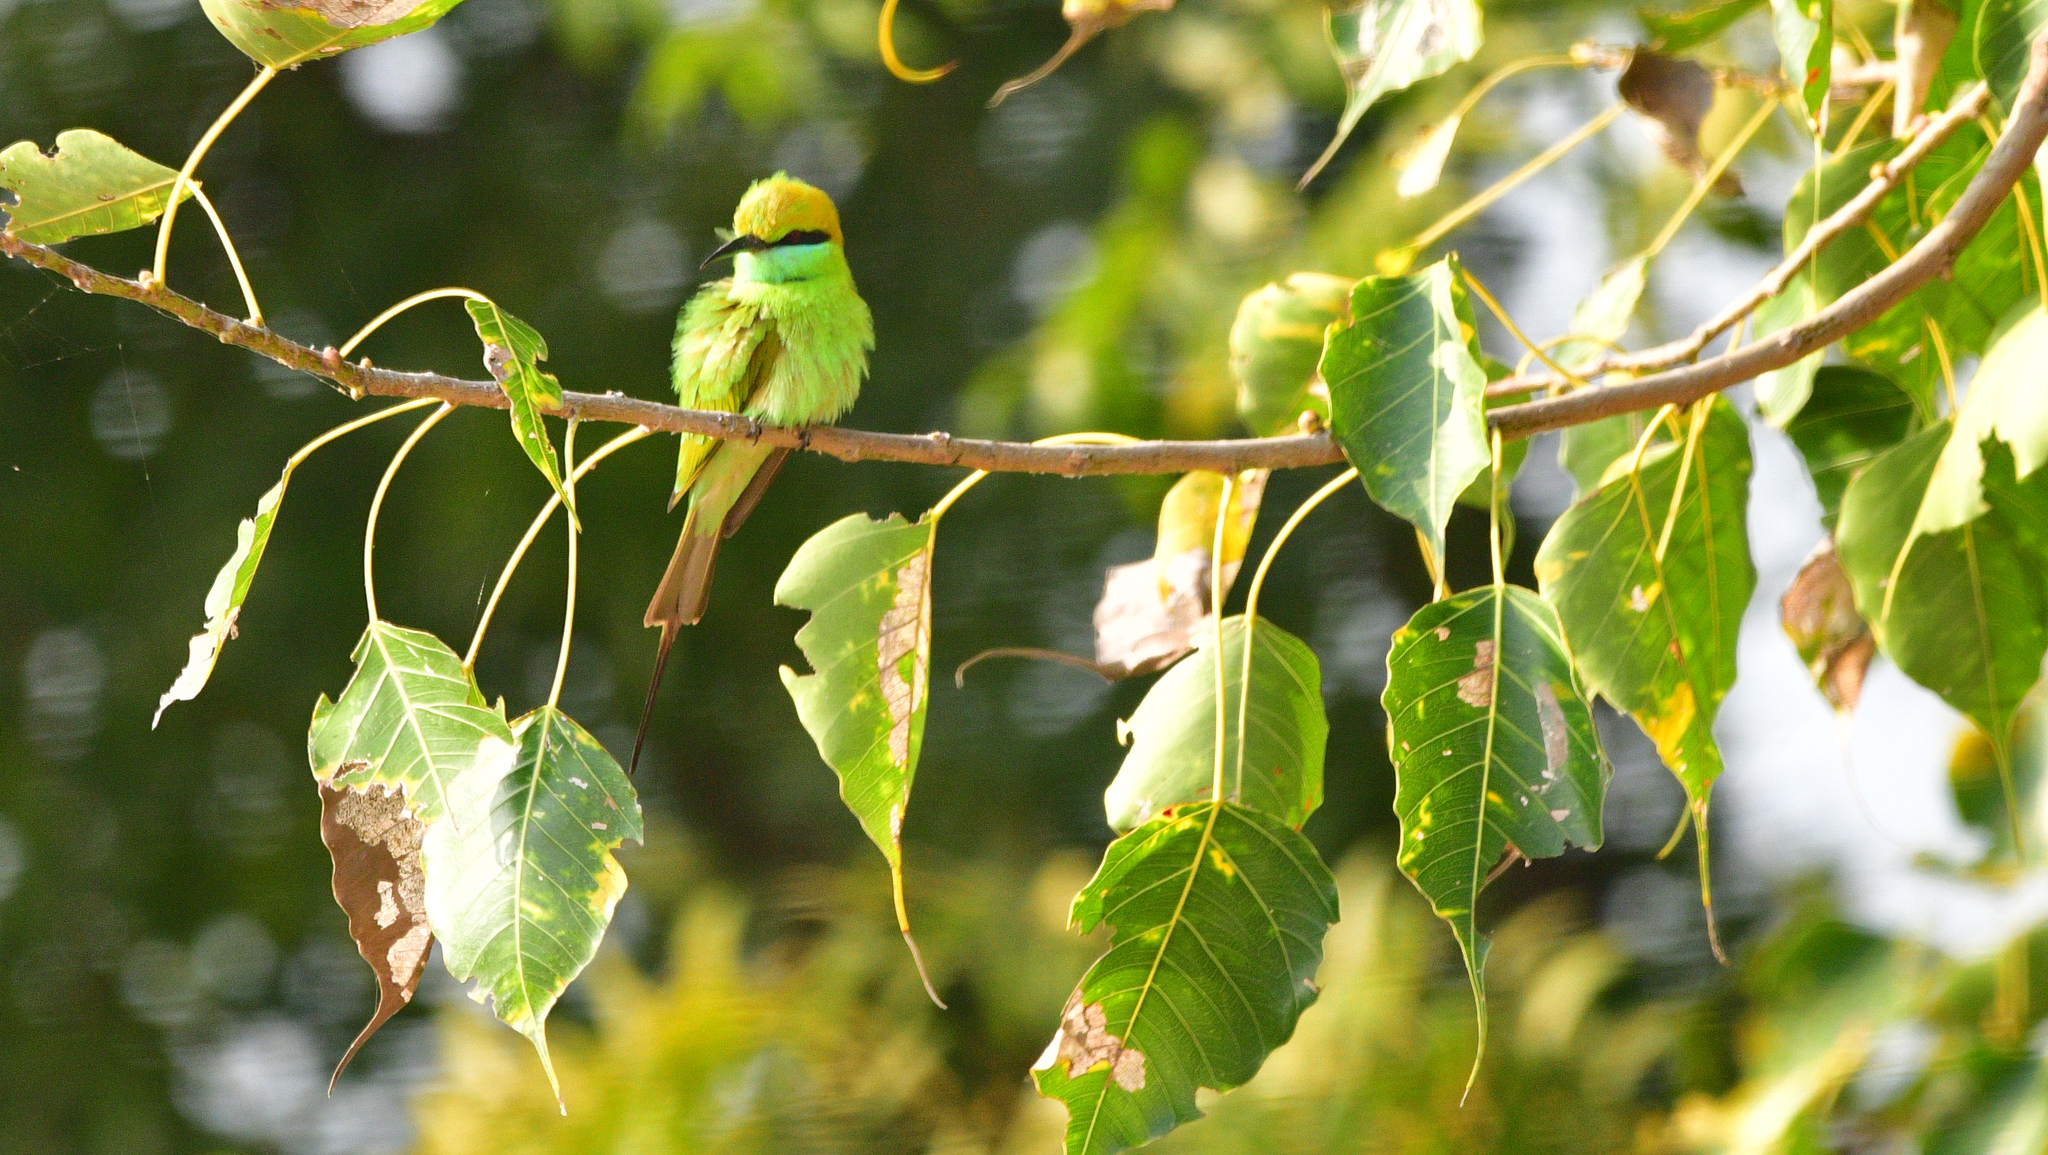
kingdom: Animalia
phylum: Chordata
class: Aves
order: Coraciiformes
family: Meropidae
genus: Merops
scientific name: Merops orientalis
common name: Green bee-eater
